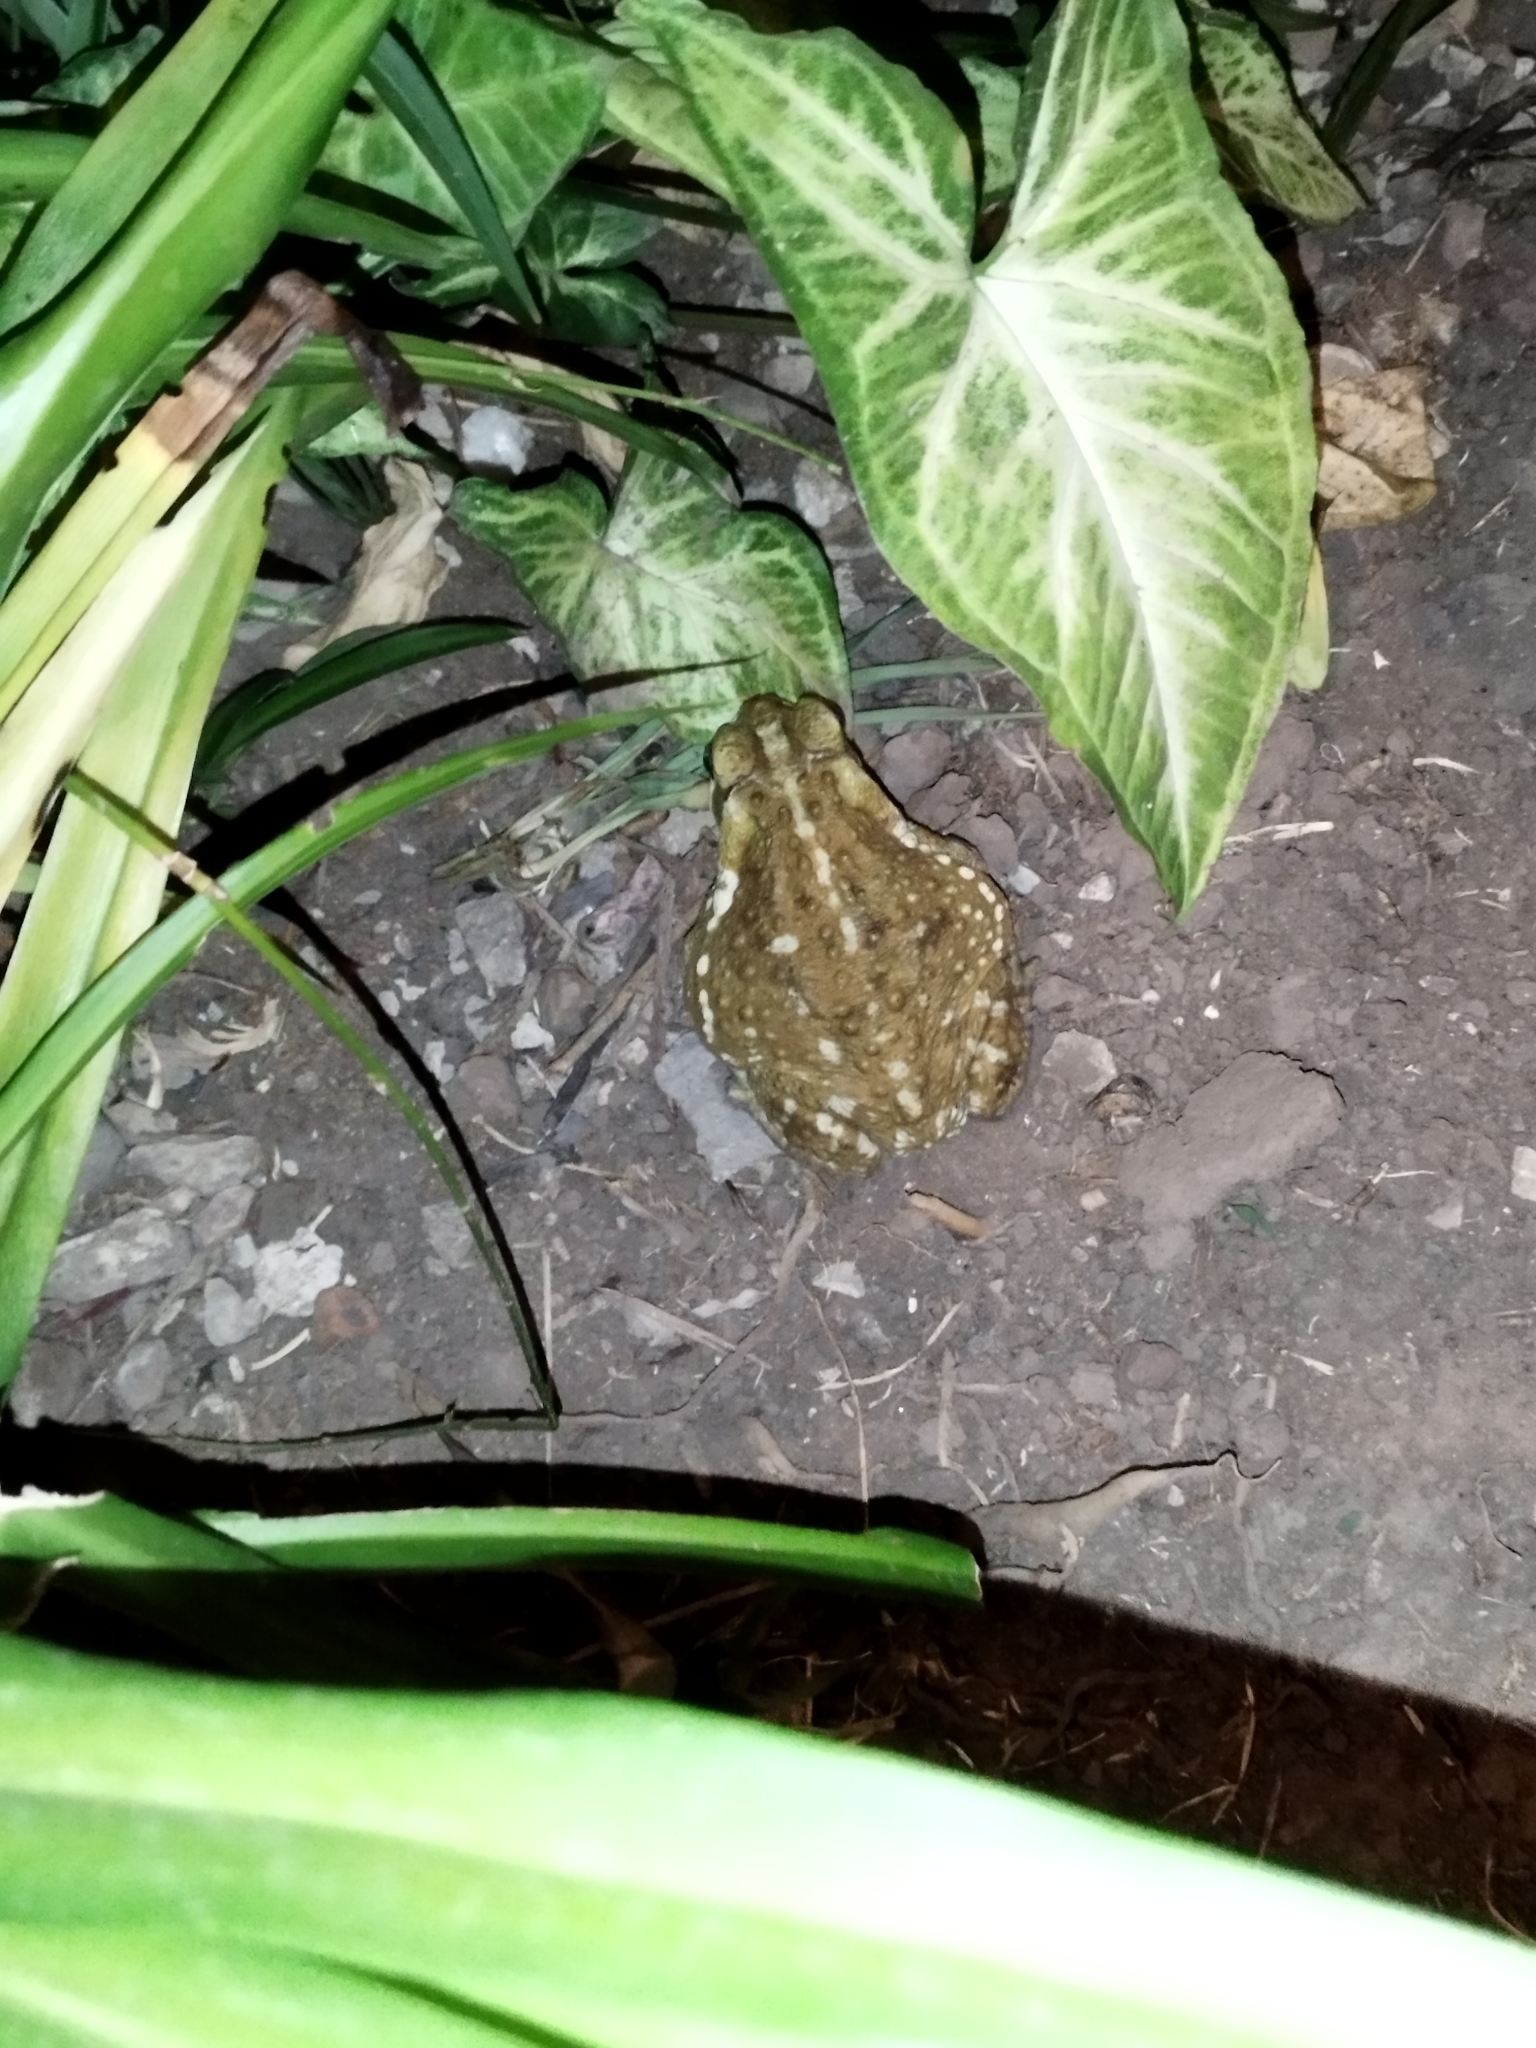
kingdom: Animalia
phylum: Chordata
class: Amphibia
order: Anura
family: Bufonidae
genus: Rhinella
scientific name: Rhinella arenarum
